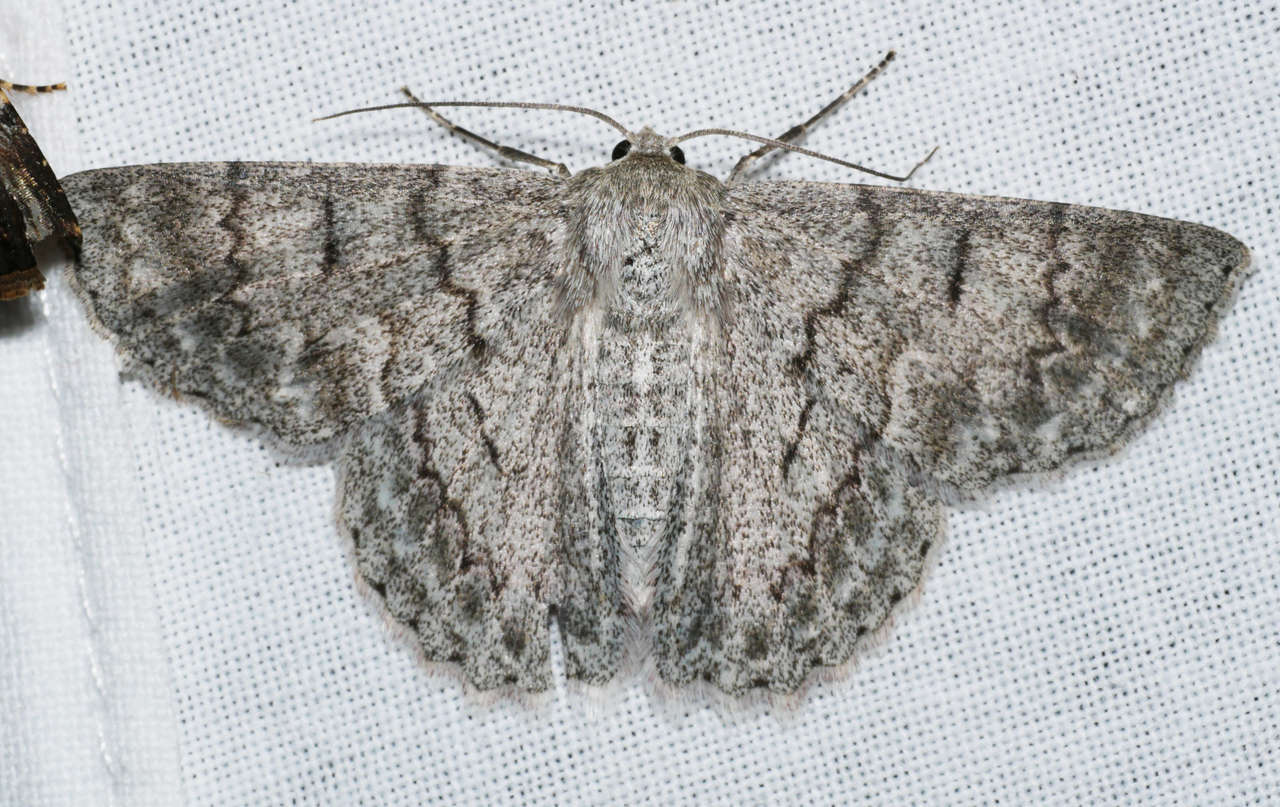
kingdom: Animalia
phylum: Arthropoda
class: Insecta
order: Lepidoptera
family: Geometridae
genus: Crypsiphona
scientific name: Crypsiphona ocultaria
